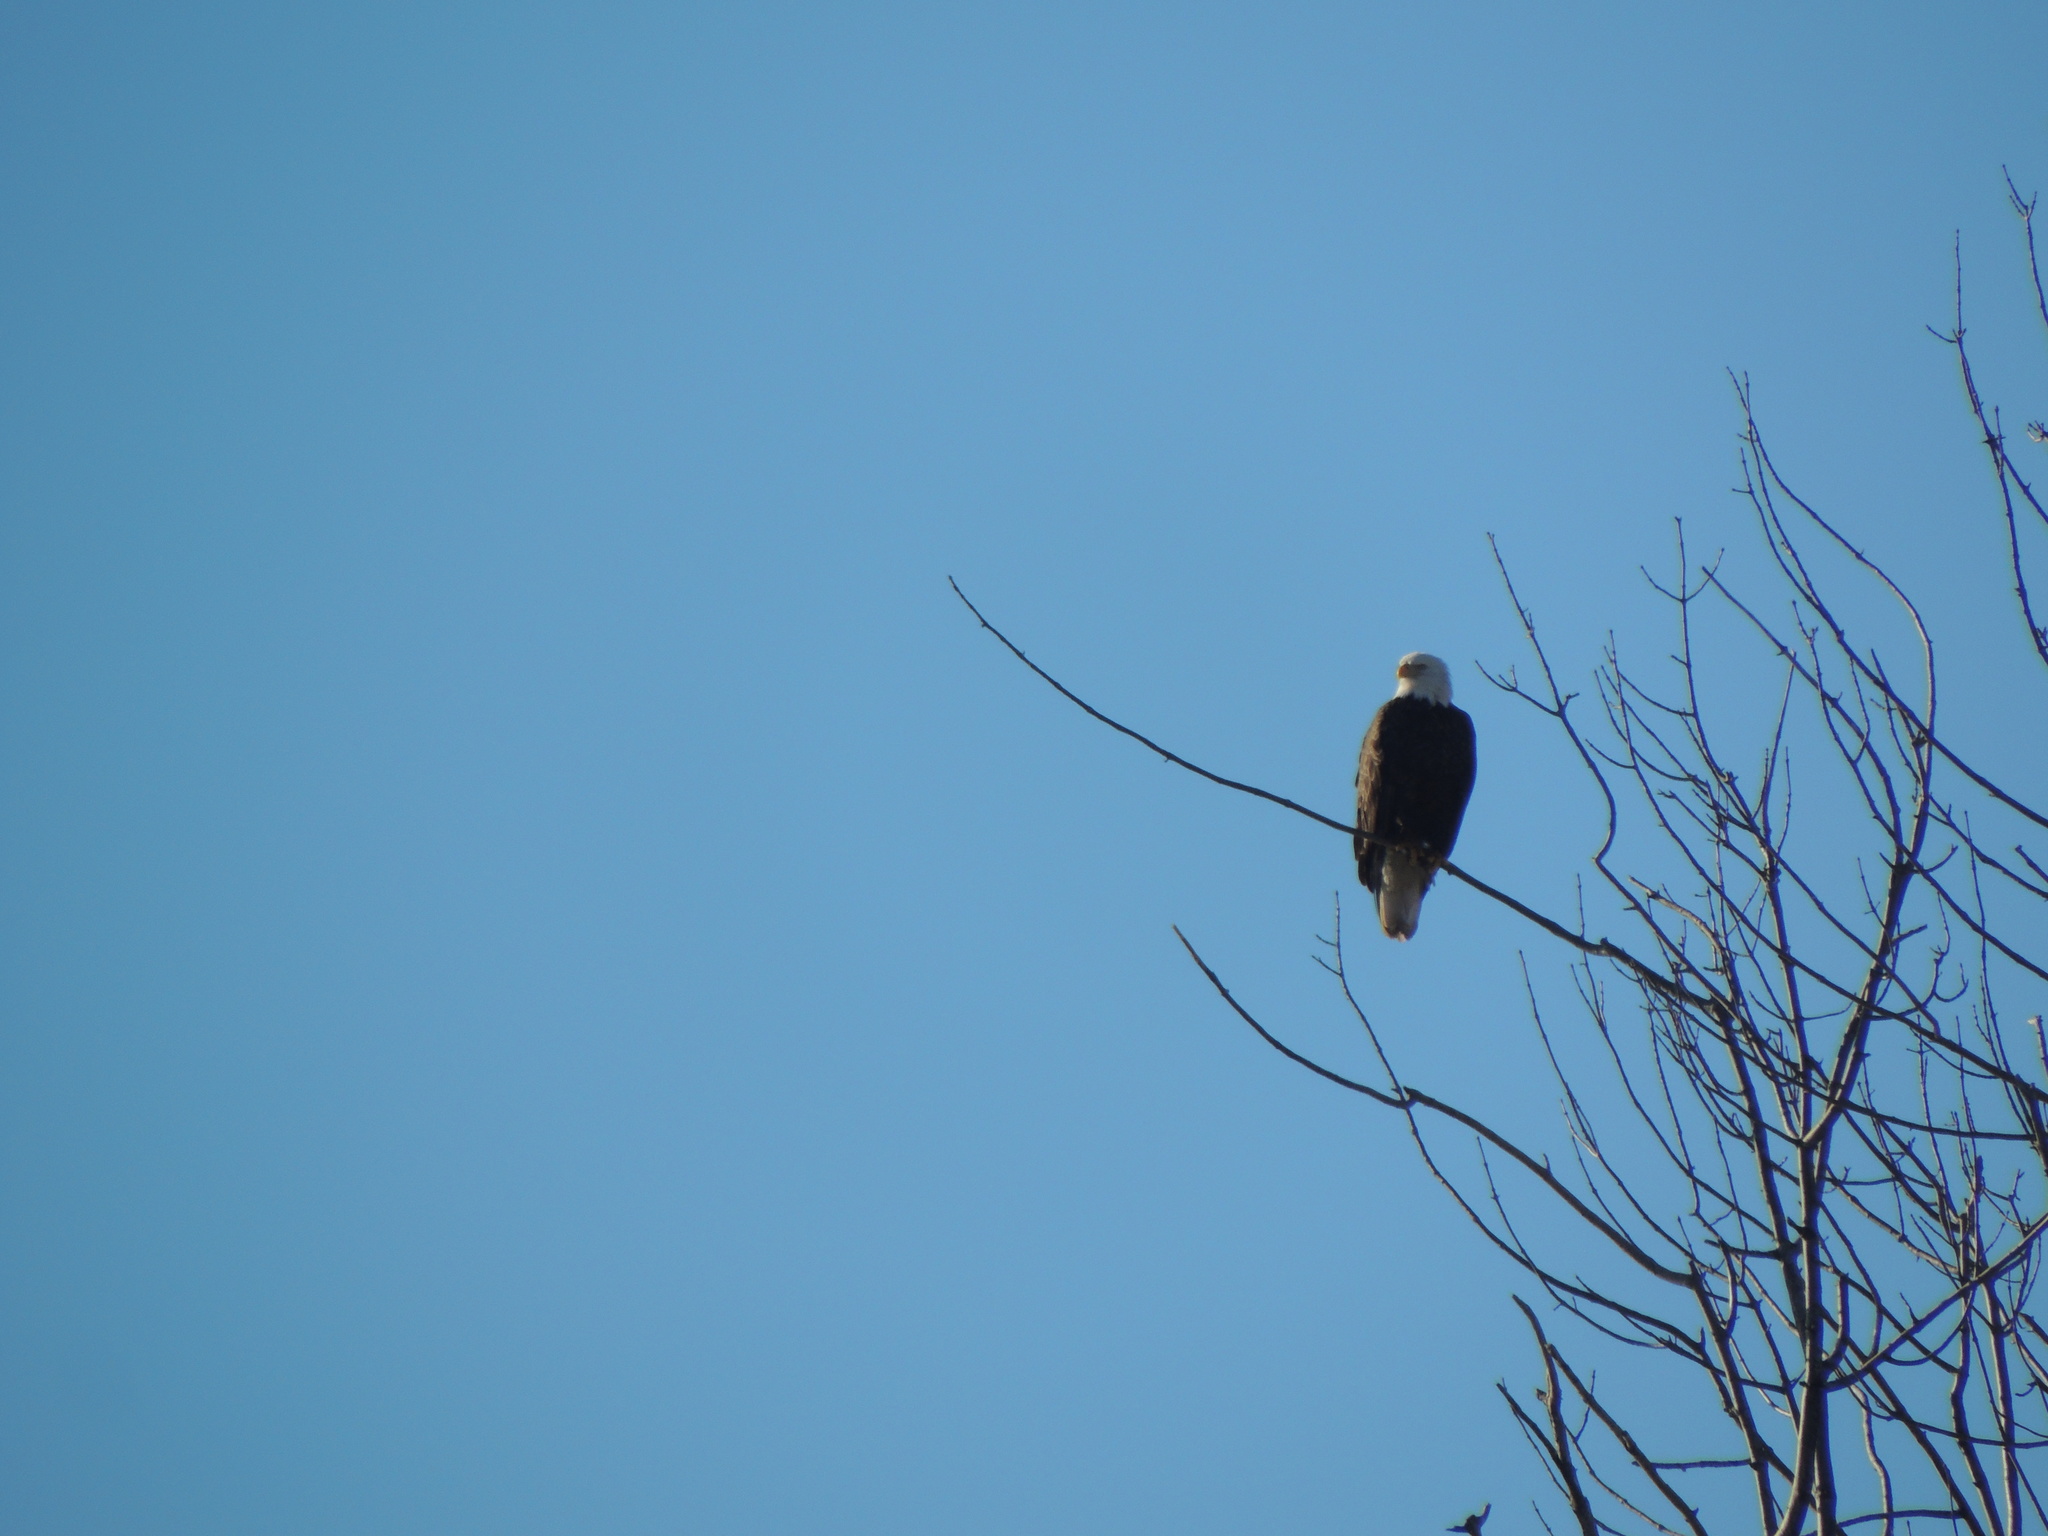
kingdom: Animalia
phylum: Chordata
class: Aves
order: Accipitriformes
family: Accipitridae
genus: Haliaeetus
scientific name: Haliaeetus leucocephalus
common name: Bald eagle
